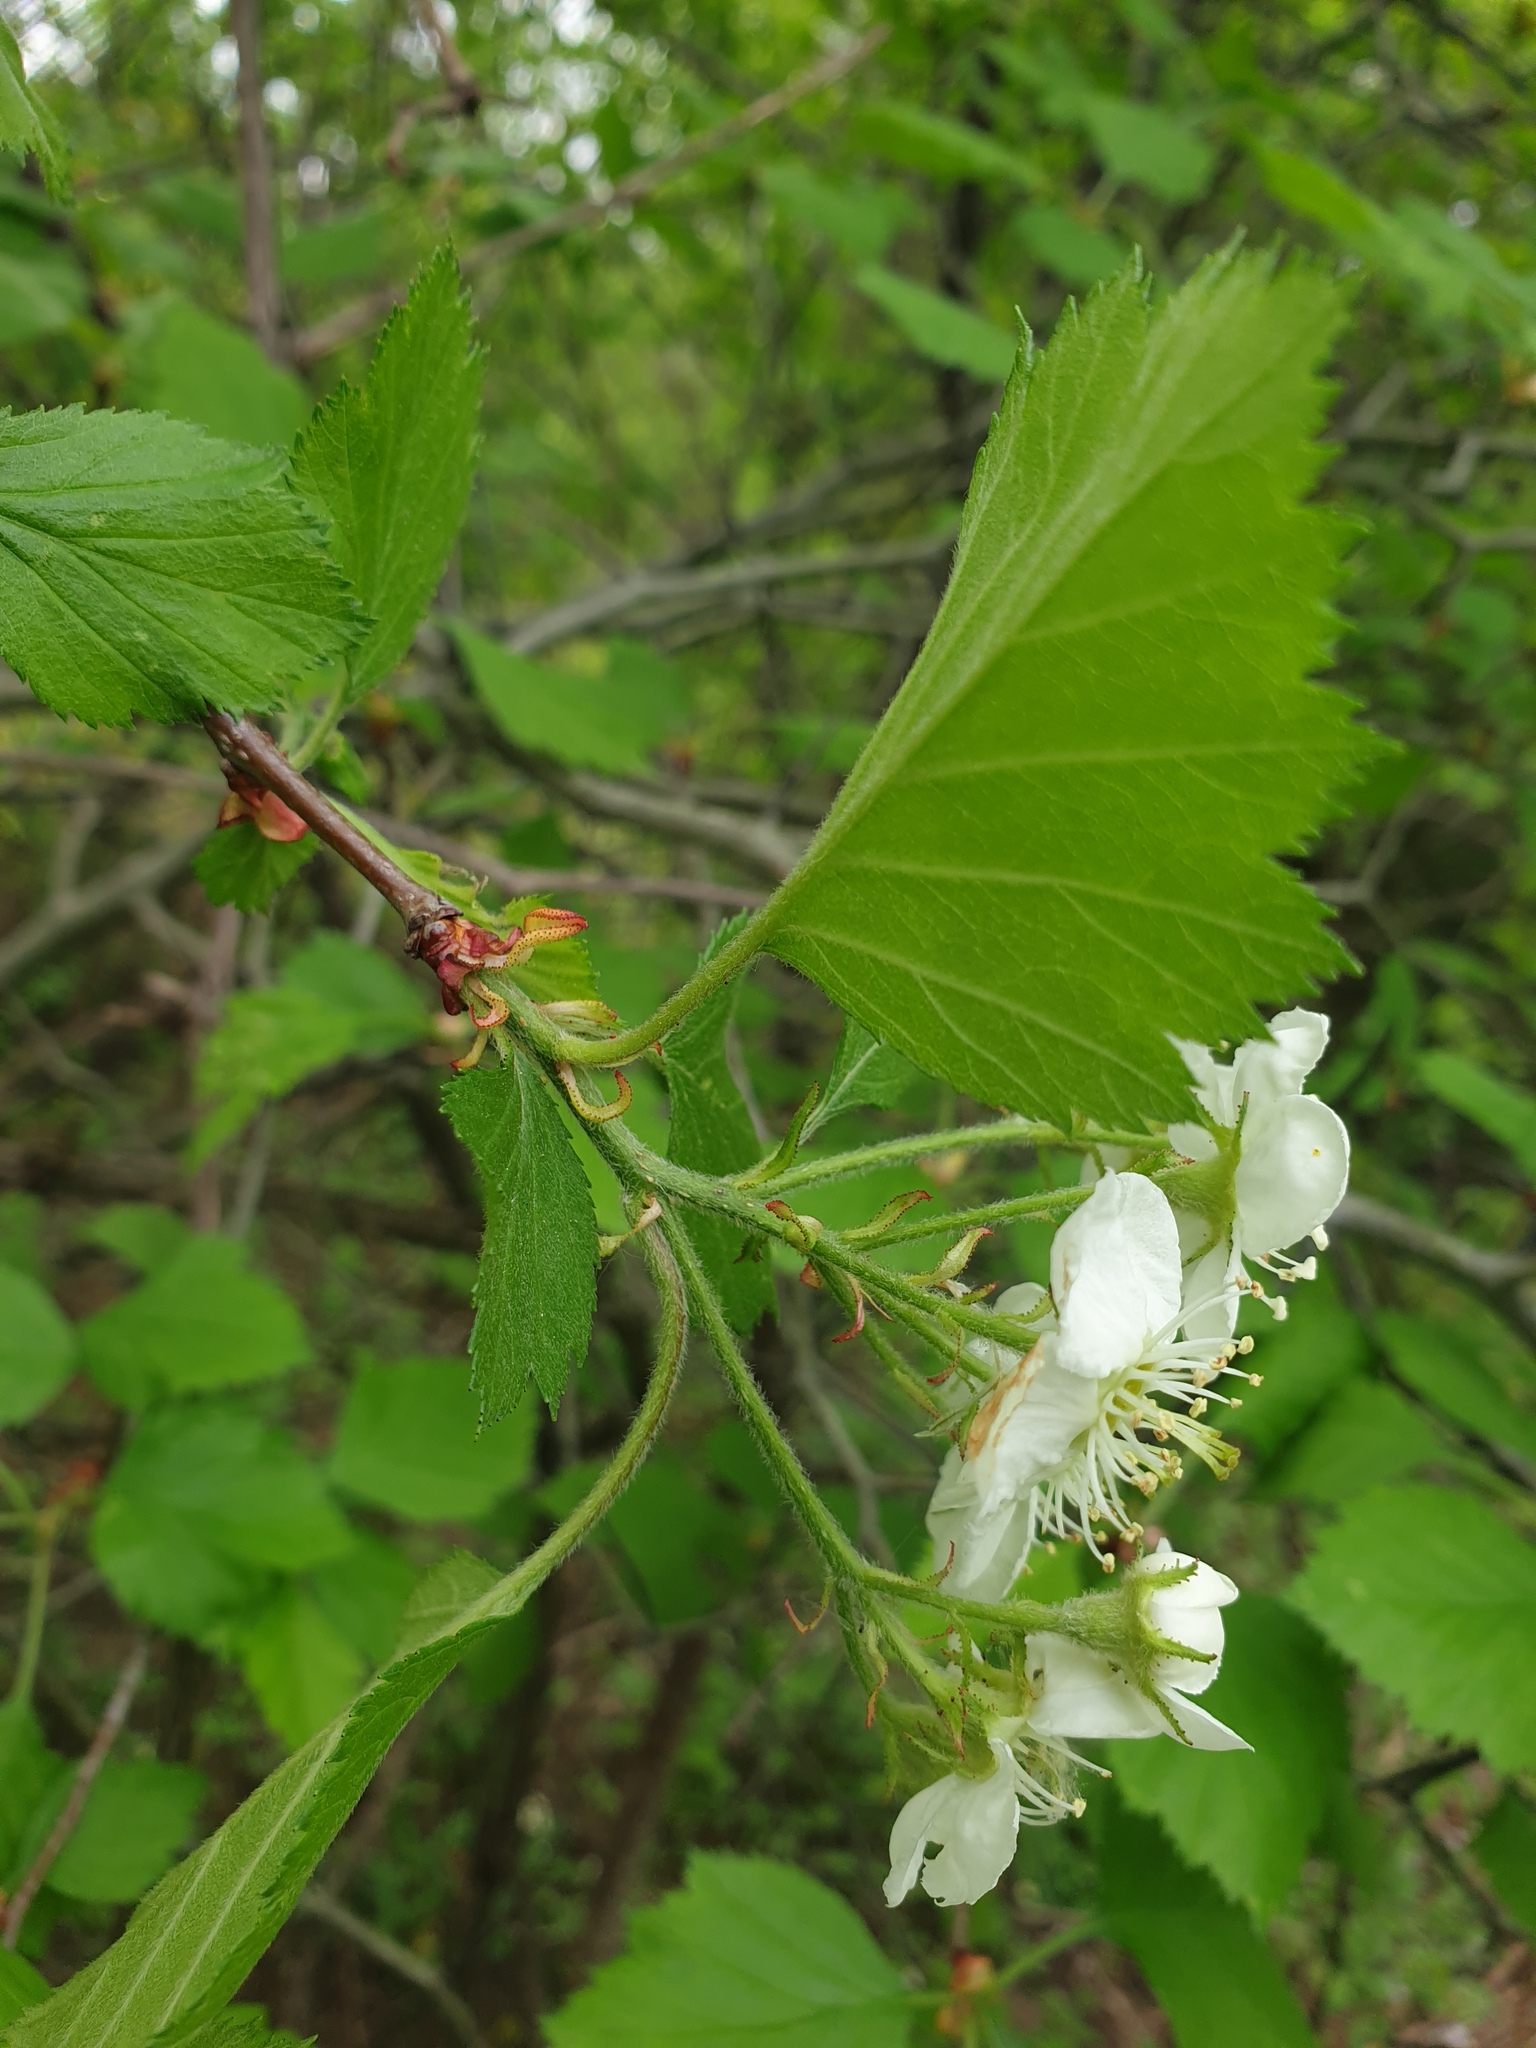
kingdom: Plantae
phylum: Tracheophyta
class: Magnoliopsida
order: Rosales
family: Rosaceae
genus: Crataegus
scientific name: Crataegus submollis
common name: Hairy cockspurthorn
